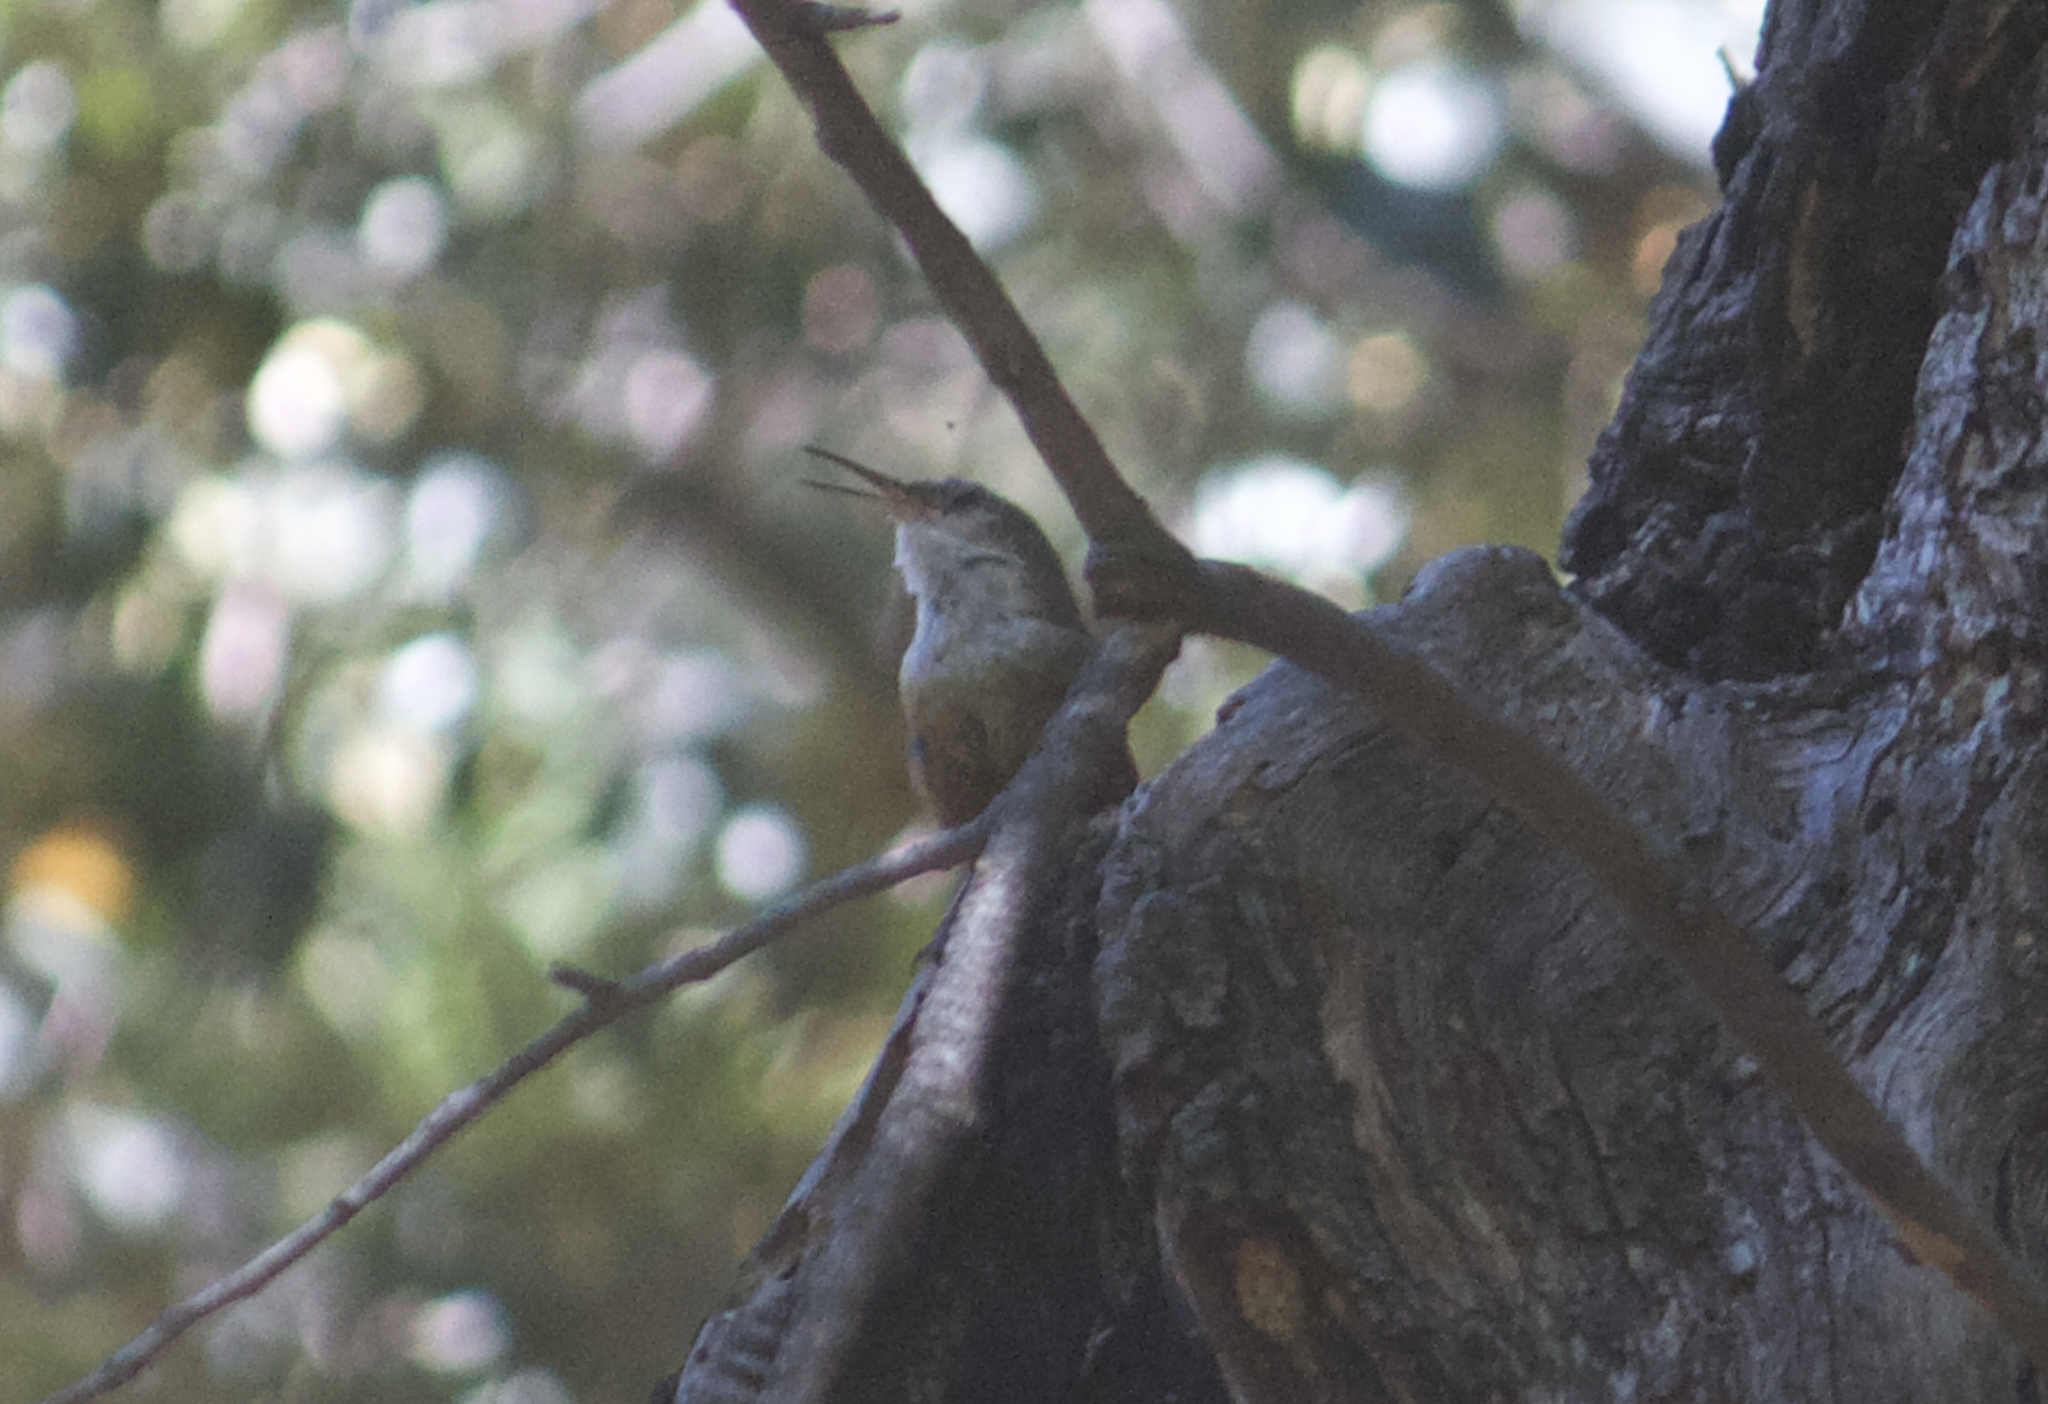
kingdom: Animalia
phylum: Chordata
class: Aves
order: Passeriformes
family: Troglodytidae
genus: Catherpes
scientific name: Catherpes mexicanus
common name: Canyon wren
